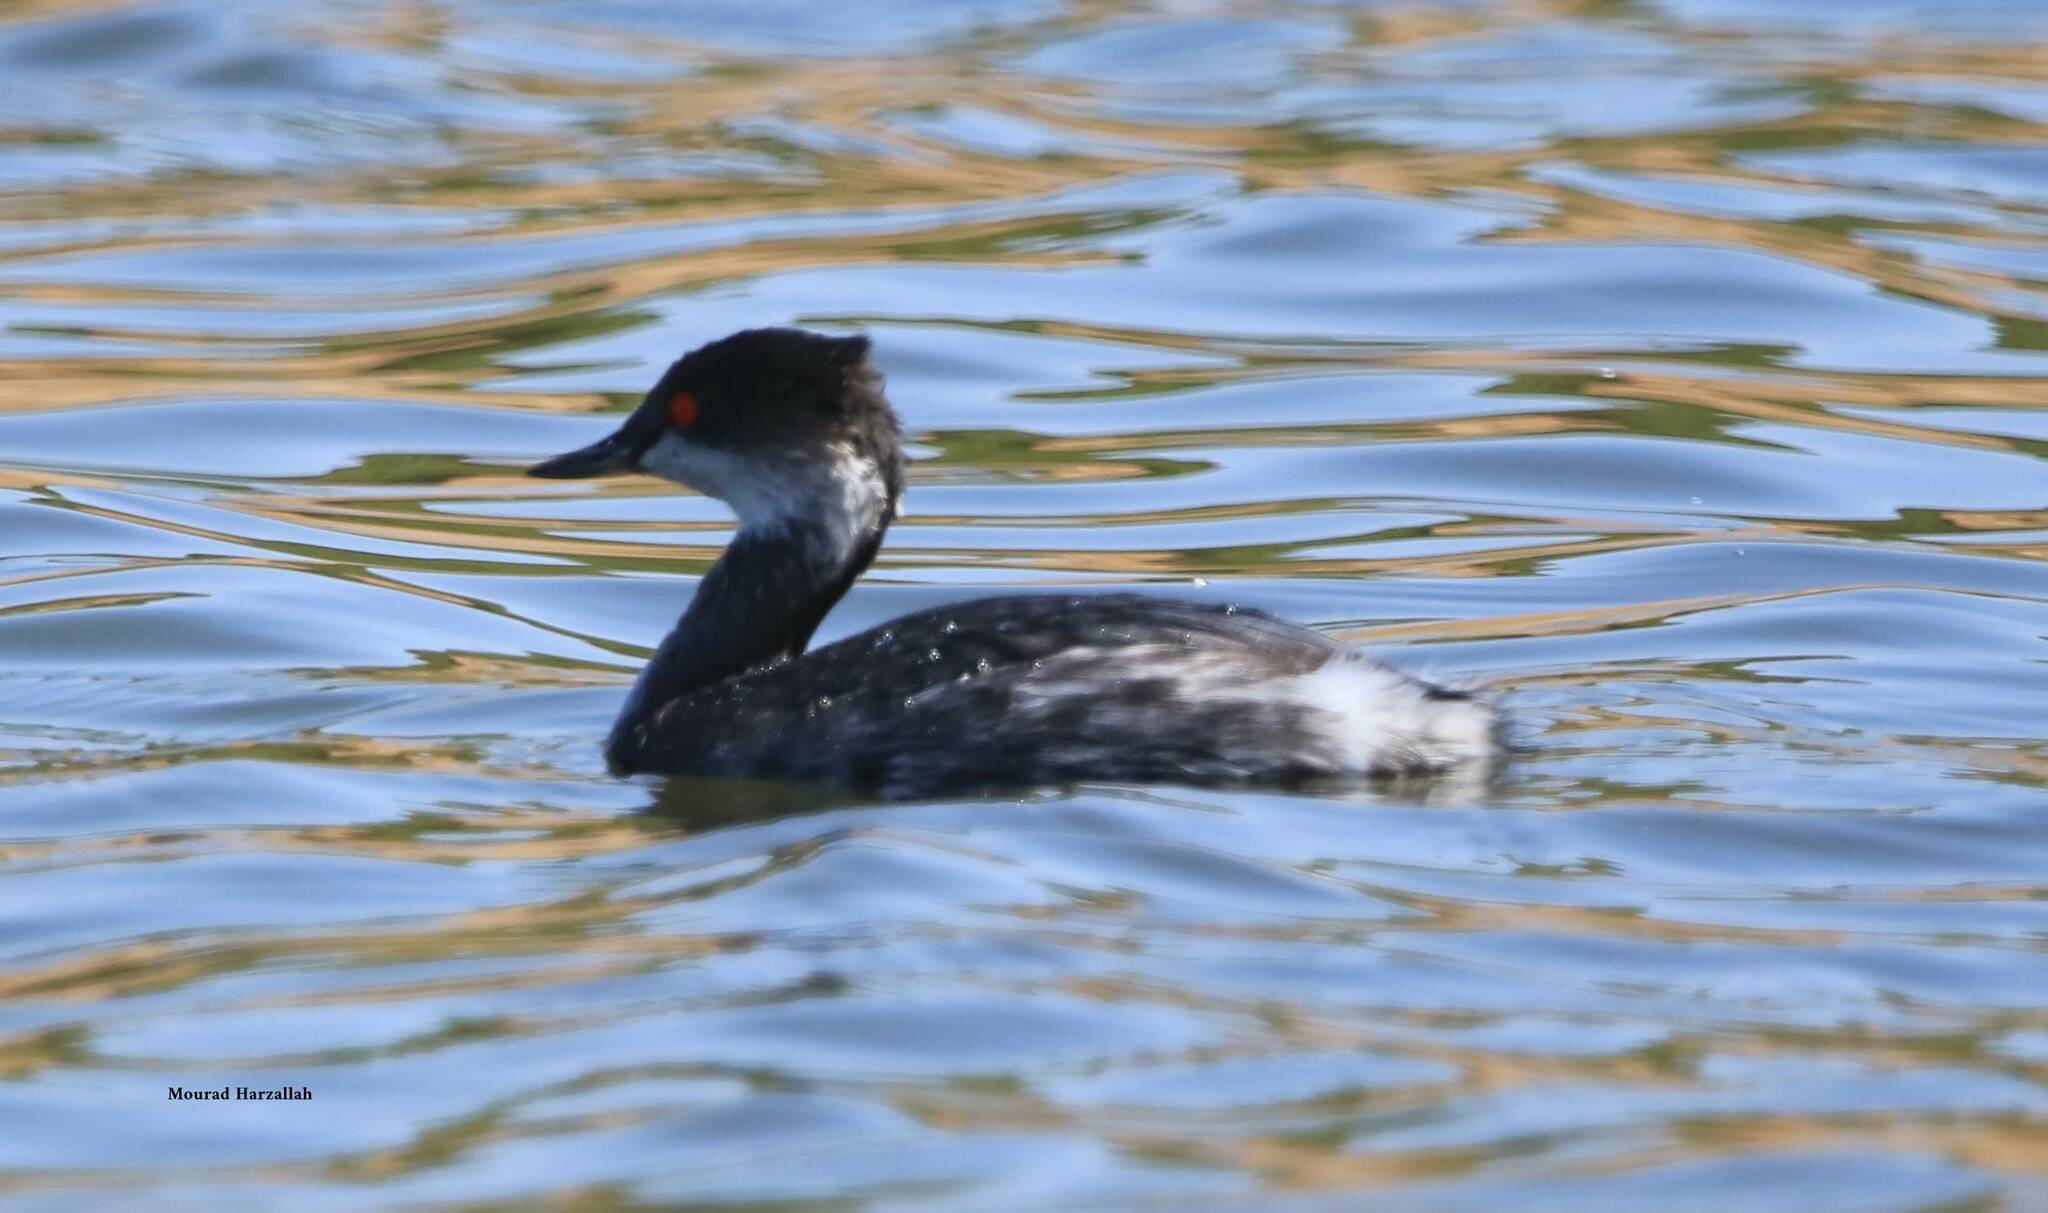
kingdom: Animalia
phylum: Chordata
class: Aves
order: Podicipediformes
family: Podicipedidae
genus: Podiceps
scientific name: Podiceps nigricollis
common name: Black-necked grebe
